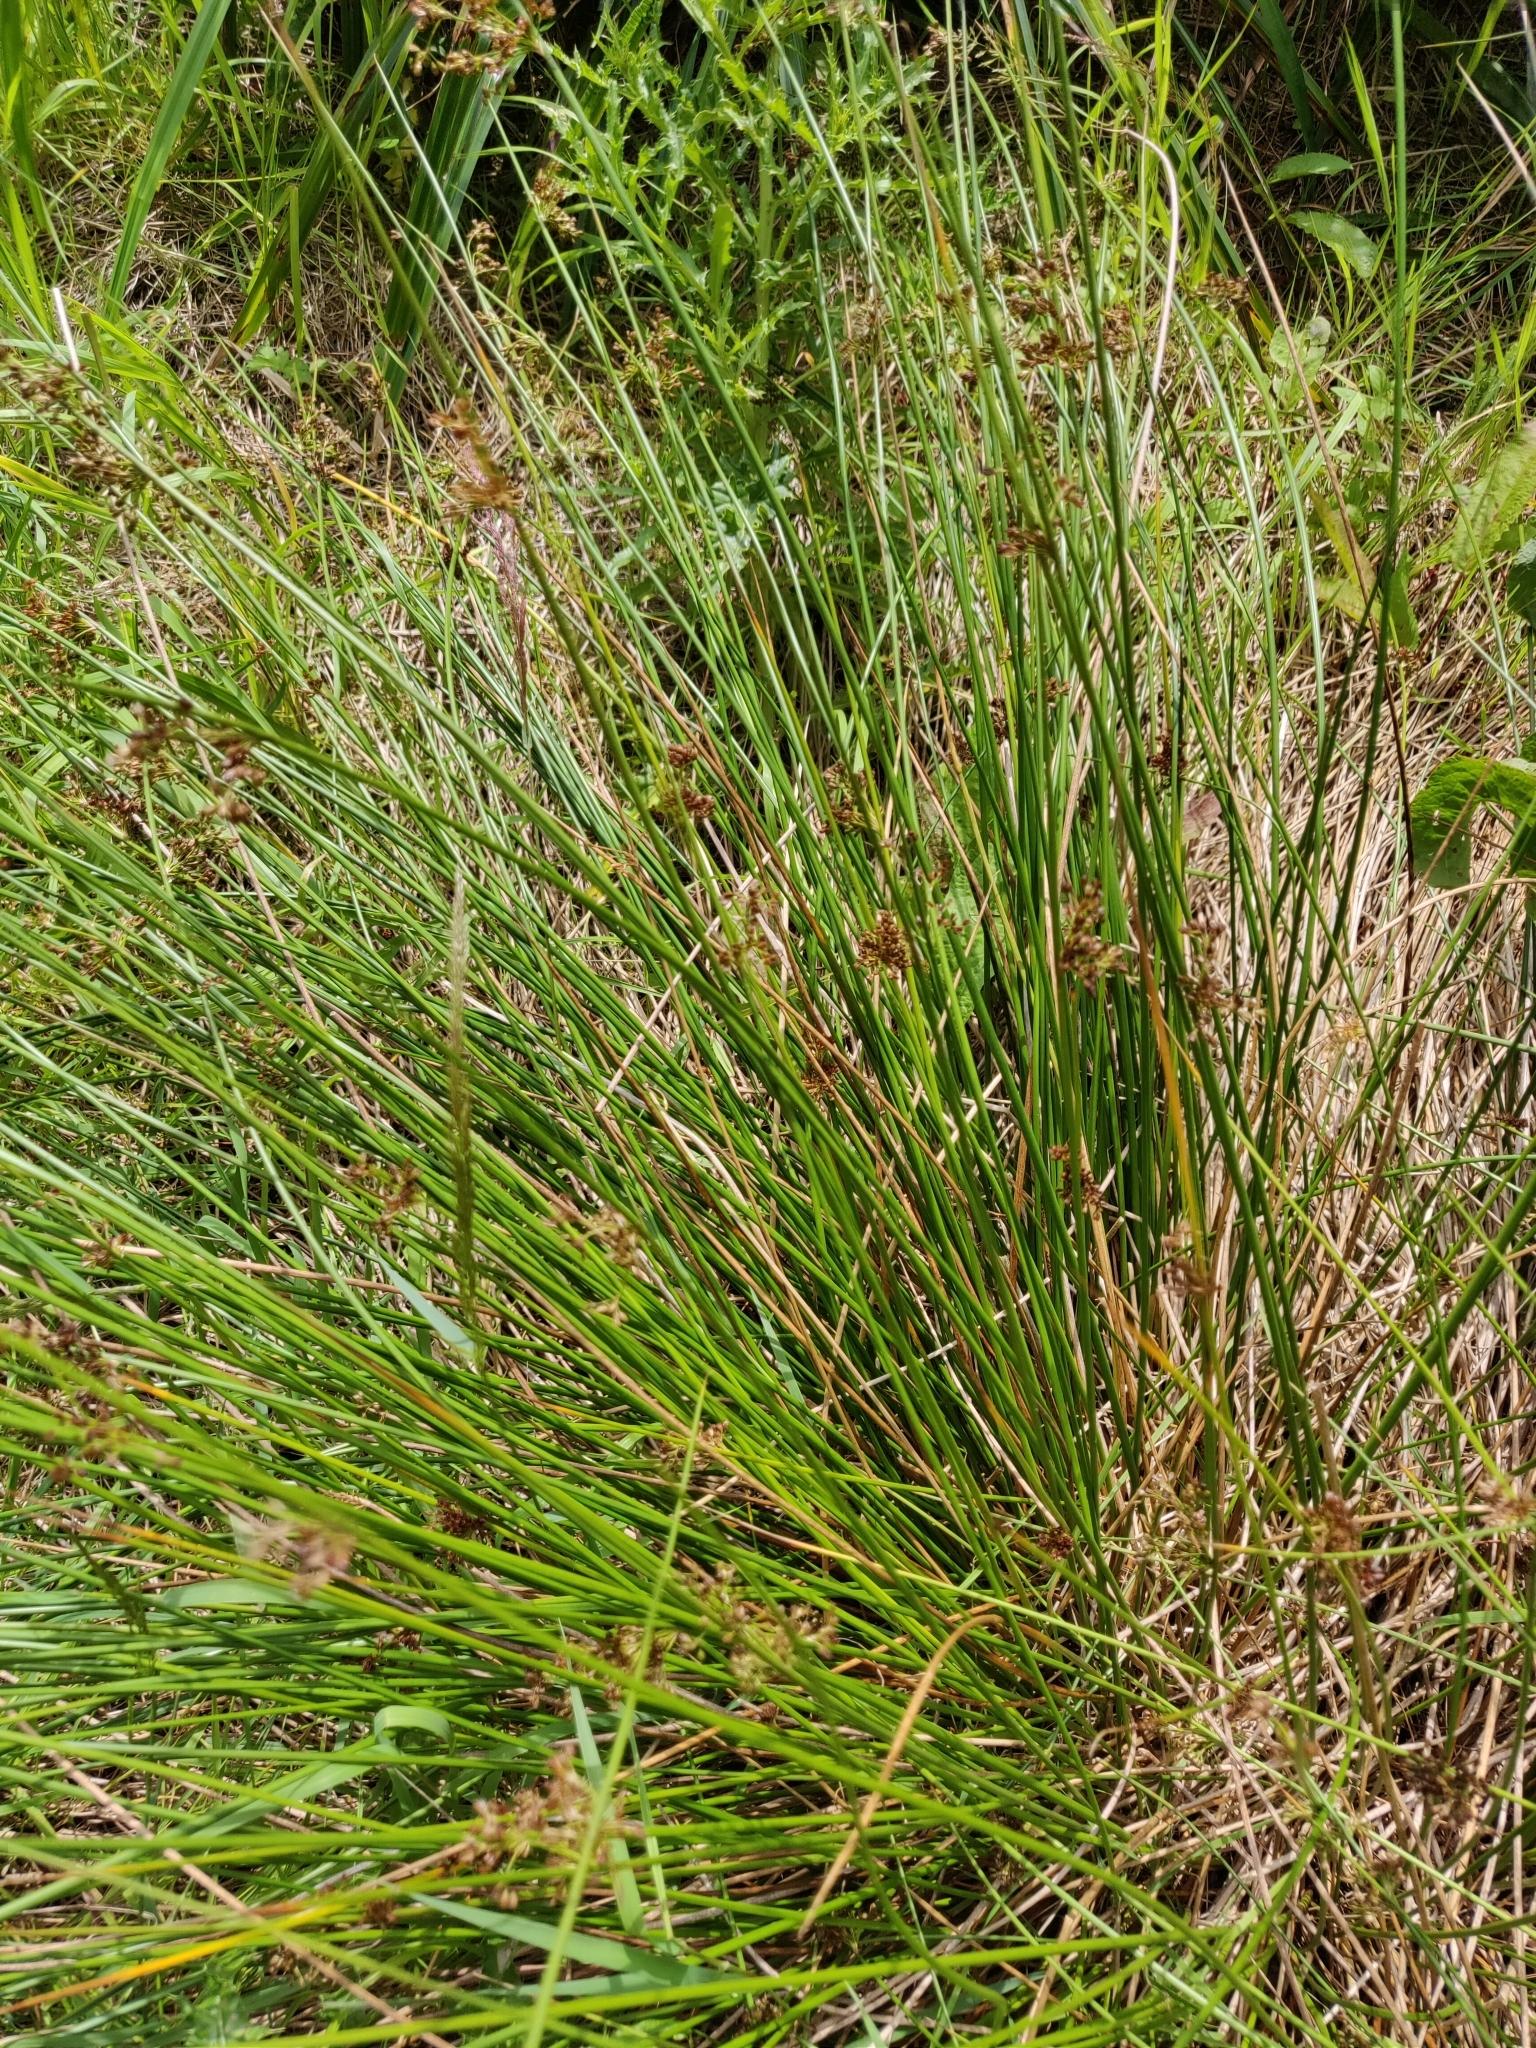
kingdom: Plantae
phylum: Tracheophyta
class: Liliopsida
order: Poales
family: Juncaceae
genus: Juncus
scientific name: Juncus effusus
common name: Soft rush
